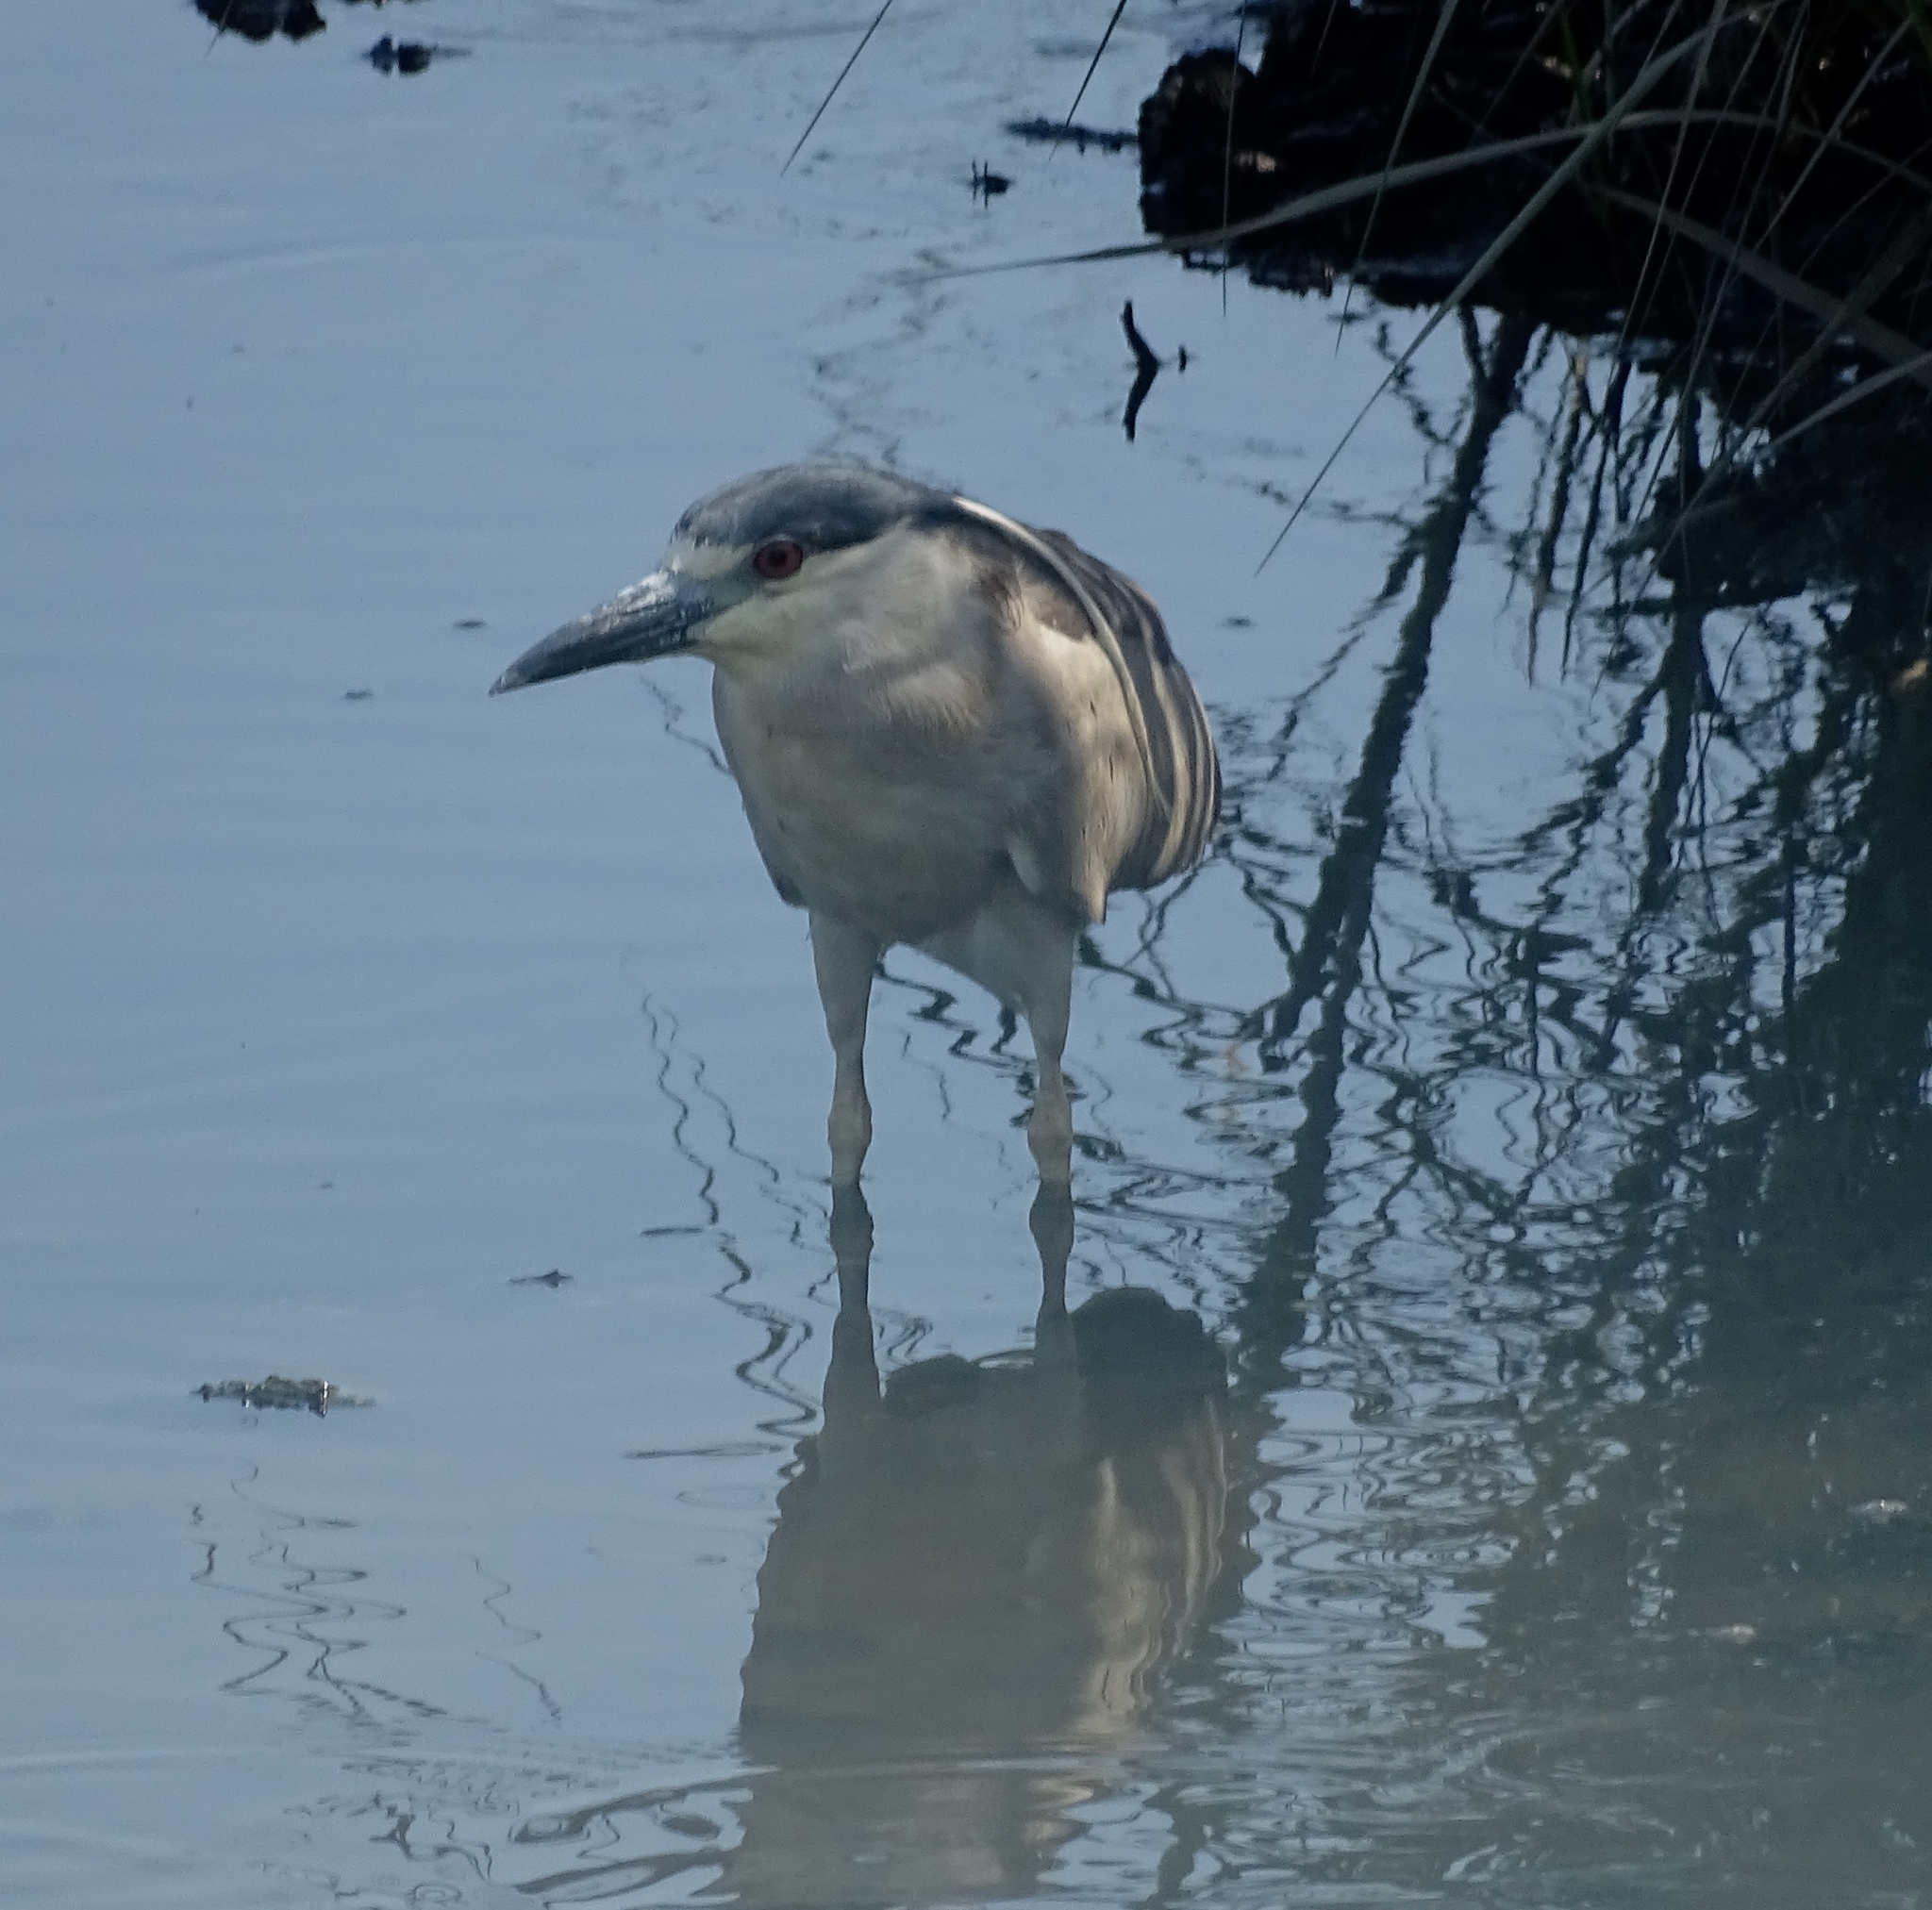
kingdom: Animalia
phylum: Chordata
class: Aves
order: Pelecaniformes
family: Ardeidae
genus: Nycticorax
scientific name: Nycticorax nycticorax
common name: Black-crowned night heron
